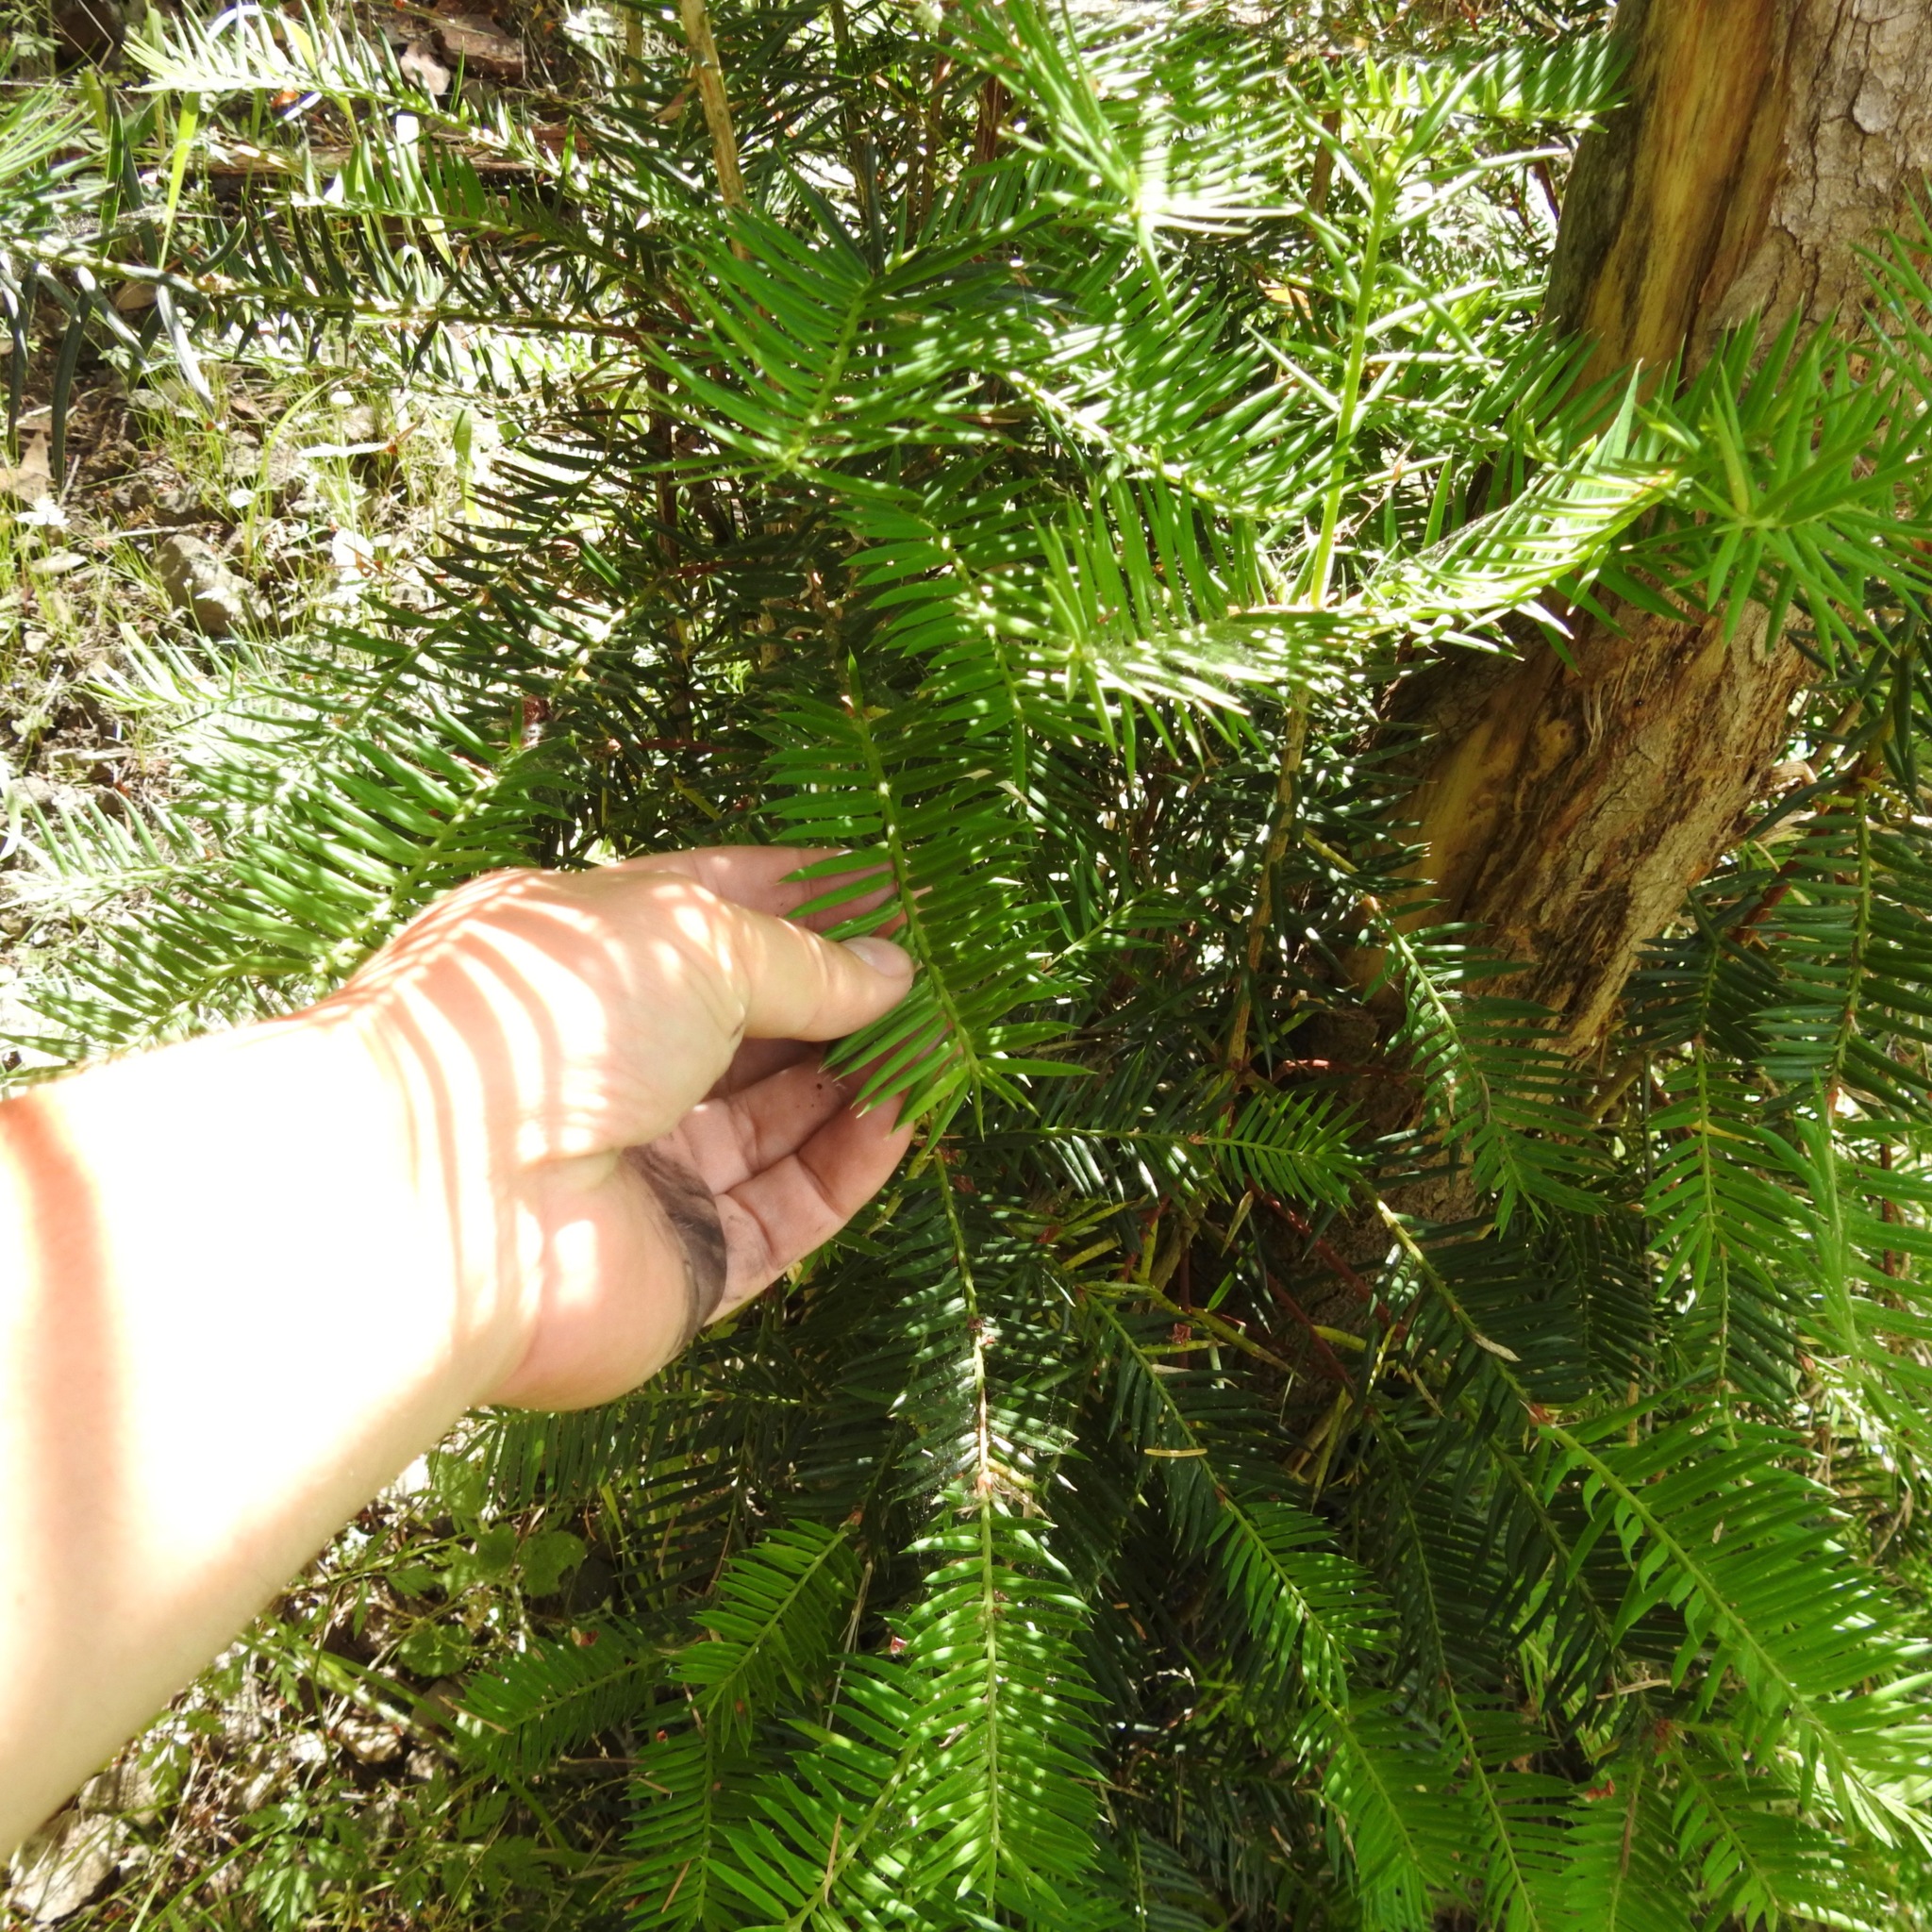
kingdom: Plantae
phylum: Tracheophyta
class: Pinopsida
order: Pinales
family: Taxaceae
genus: Torreya
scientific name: Torreya californica
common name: California torreya
